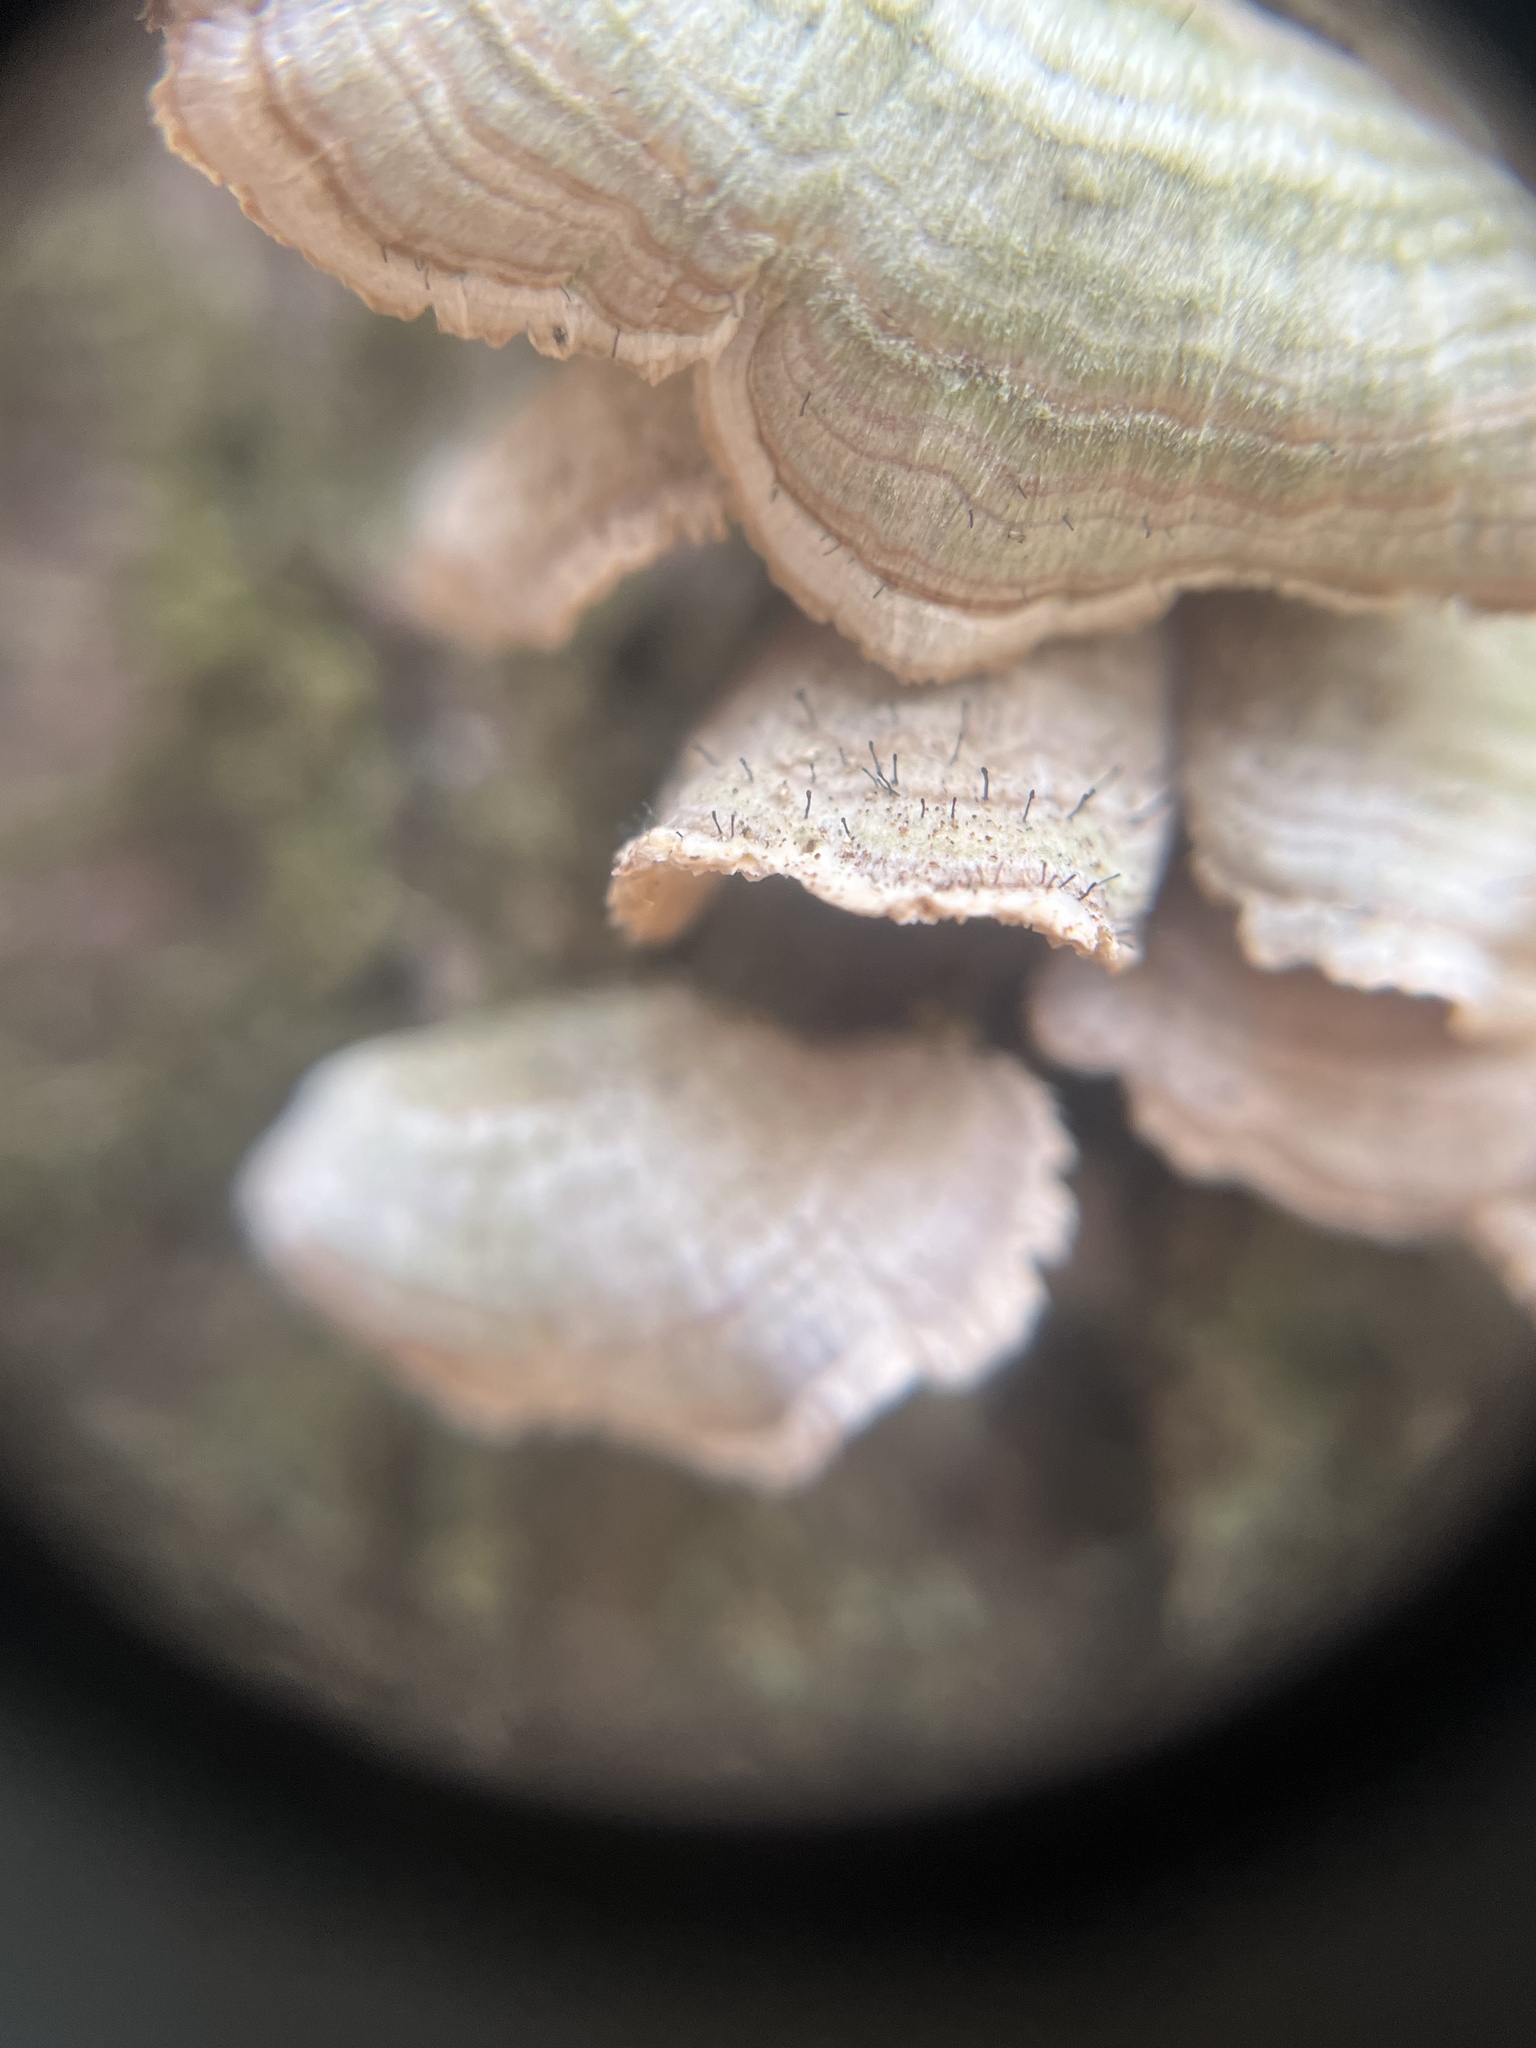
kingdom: Fungi
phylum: Ascomycota
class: Eurotiomycetes
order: Mycocaliciales
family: Mycocaliciaceae
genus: Phaeocalicium
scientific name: Phaeocalicium polyporaeum
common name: Fairy pins
